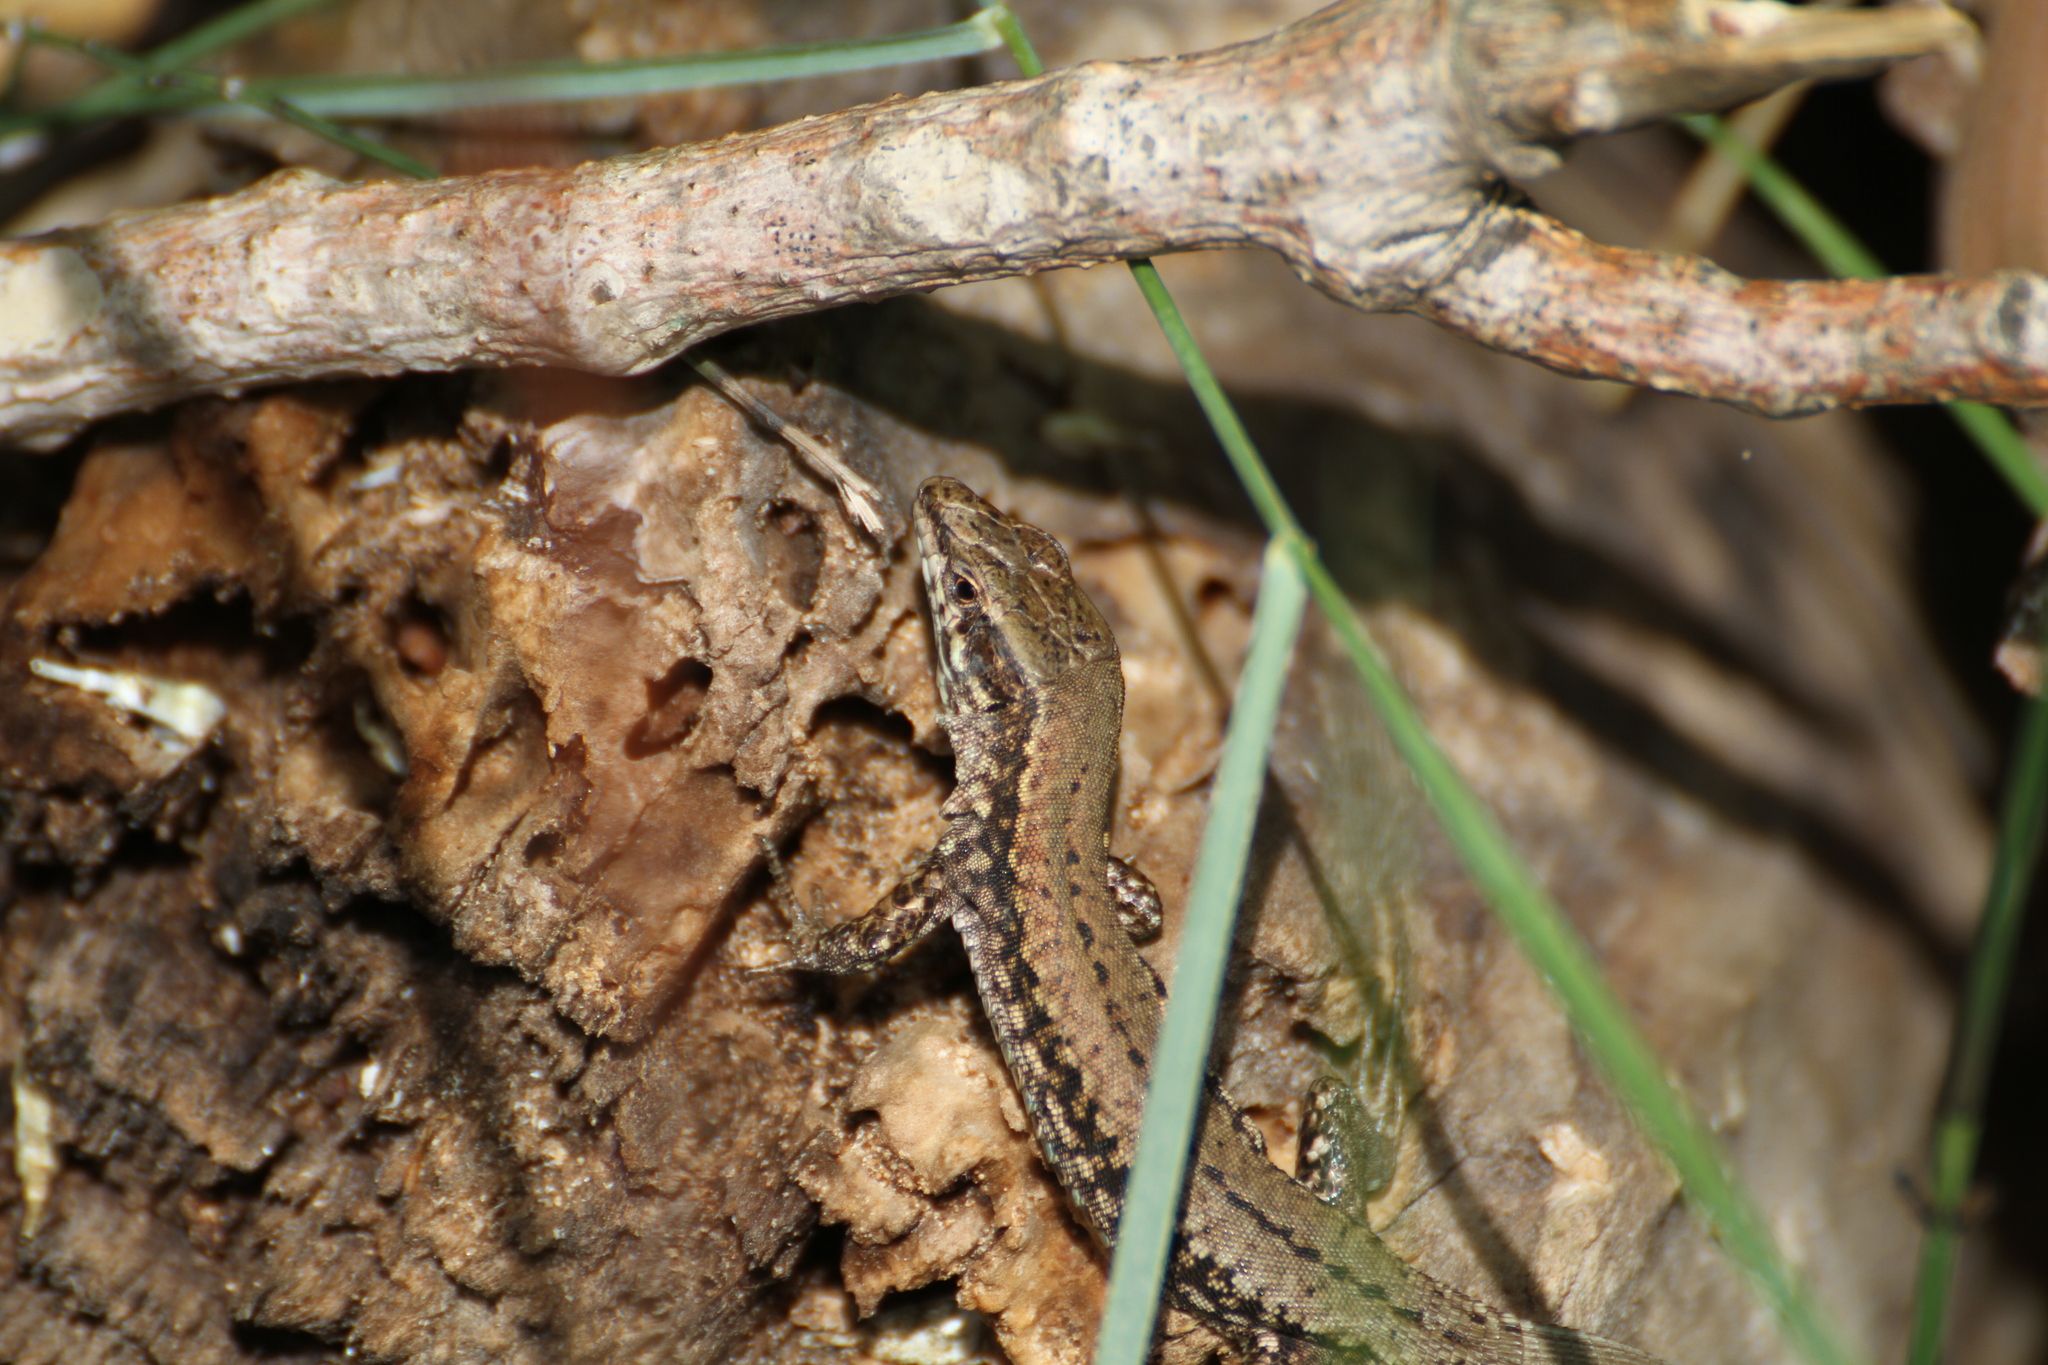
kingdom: Animalia
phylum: Chordata
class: Squamata
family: Lacertidae
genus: Podarcis
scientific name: Podarcis muralis
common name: Common wall lizard
